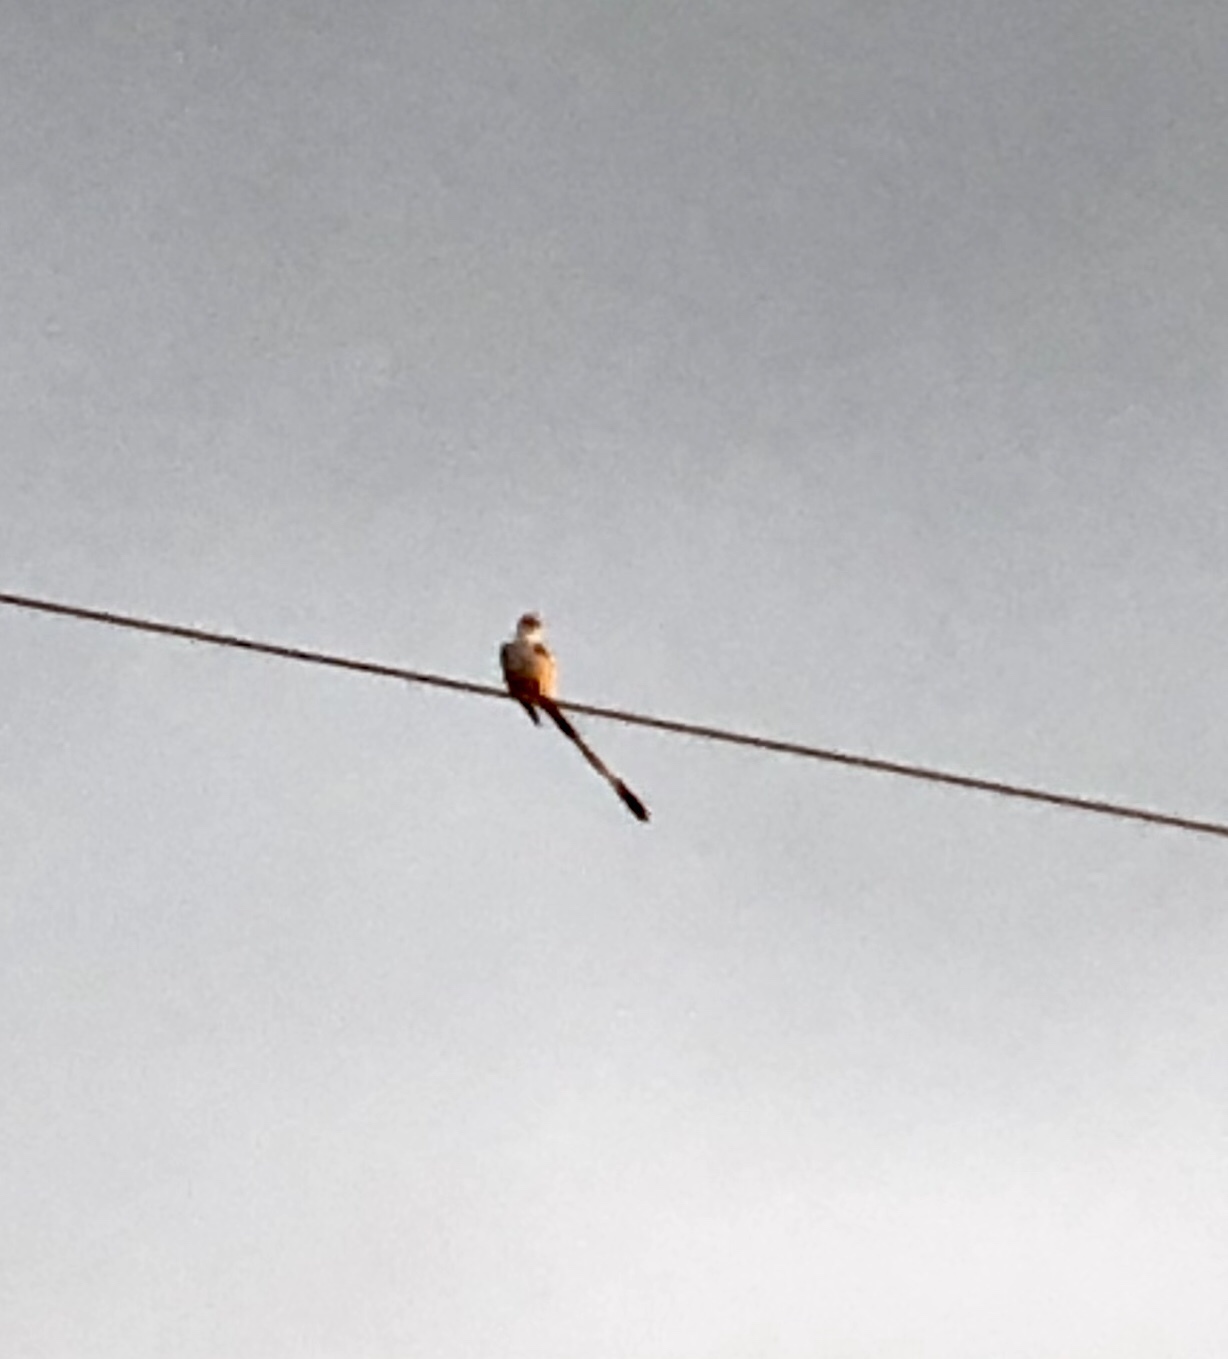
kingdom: Animalia
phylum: Chordata
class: Aves
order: Passeriformes
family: Tyrannidae
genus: Tyrannus
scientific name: Tyrannus forficatus
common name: Scissor-tailed flycatcher
